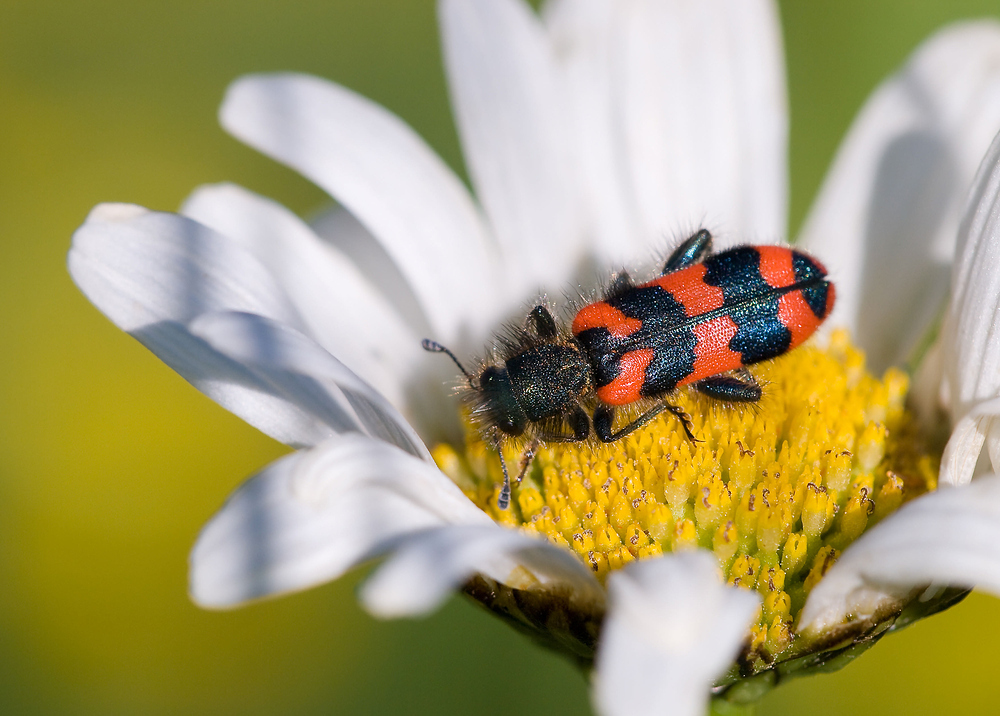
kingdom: Animalia
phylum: Arthropoda
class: Insecta
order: Coleoptera
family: Cleridae
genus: Trichodes
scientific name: Trichodes alvearius
